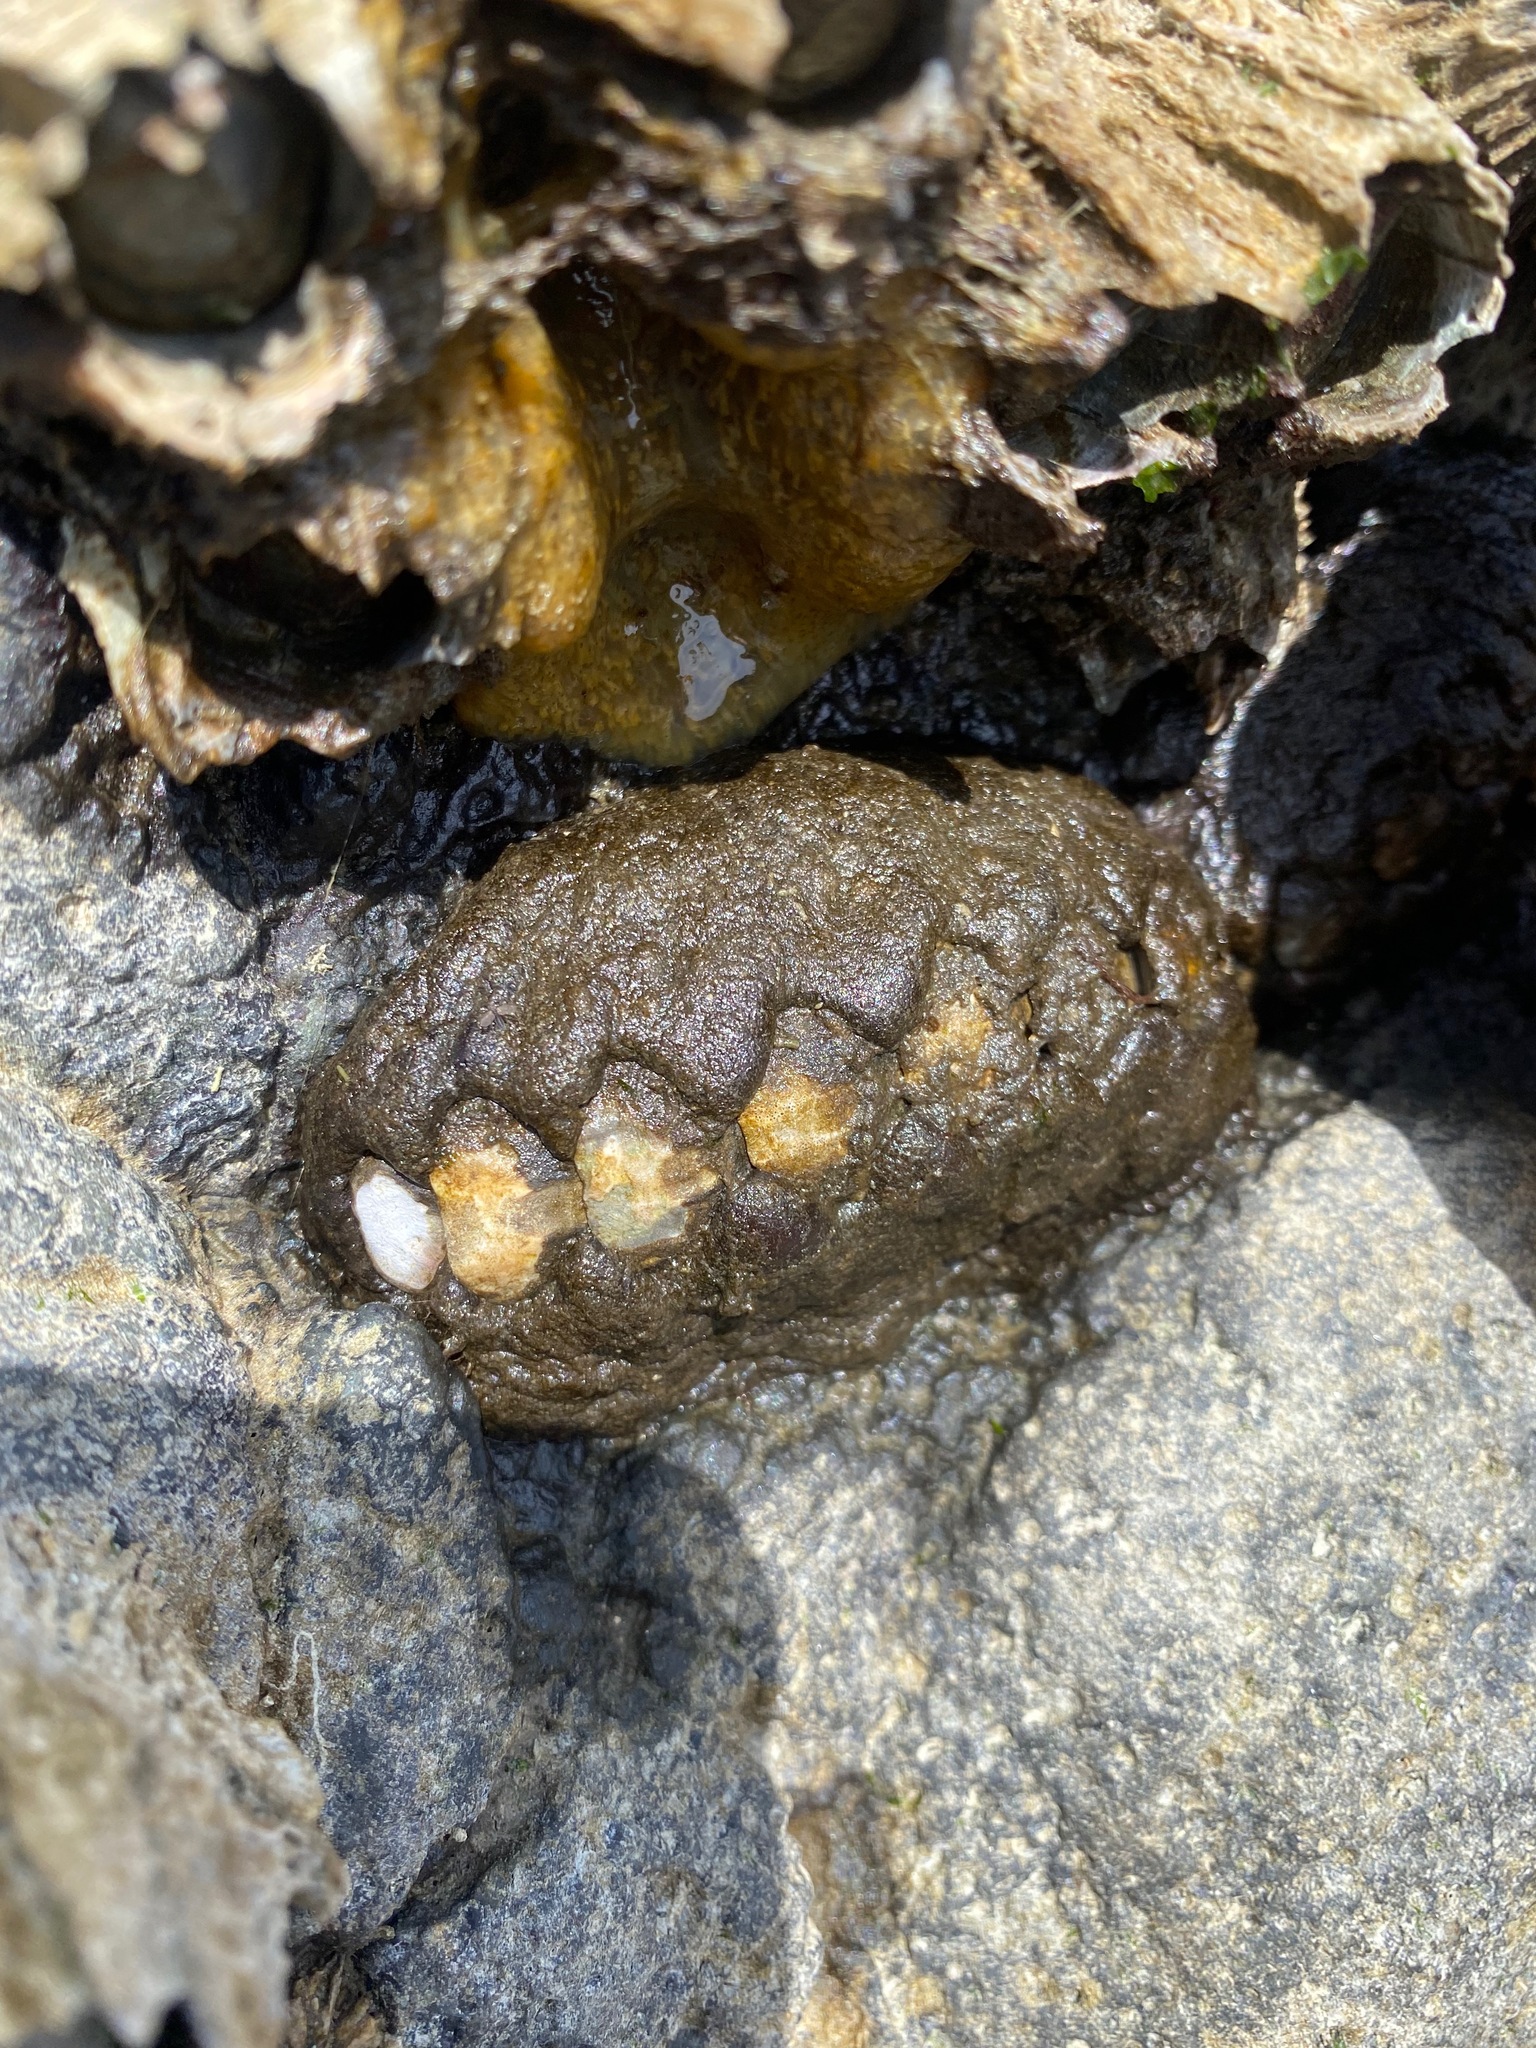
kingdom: Animalia
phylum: Mollusca
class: Polyplacophora
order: Chitonida
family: Mopaliidae
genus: Katharina
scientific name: Katharina tunicata
